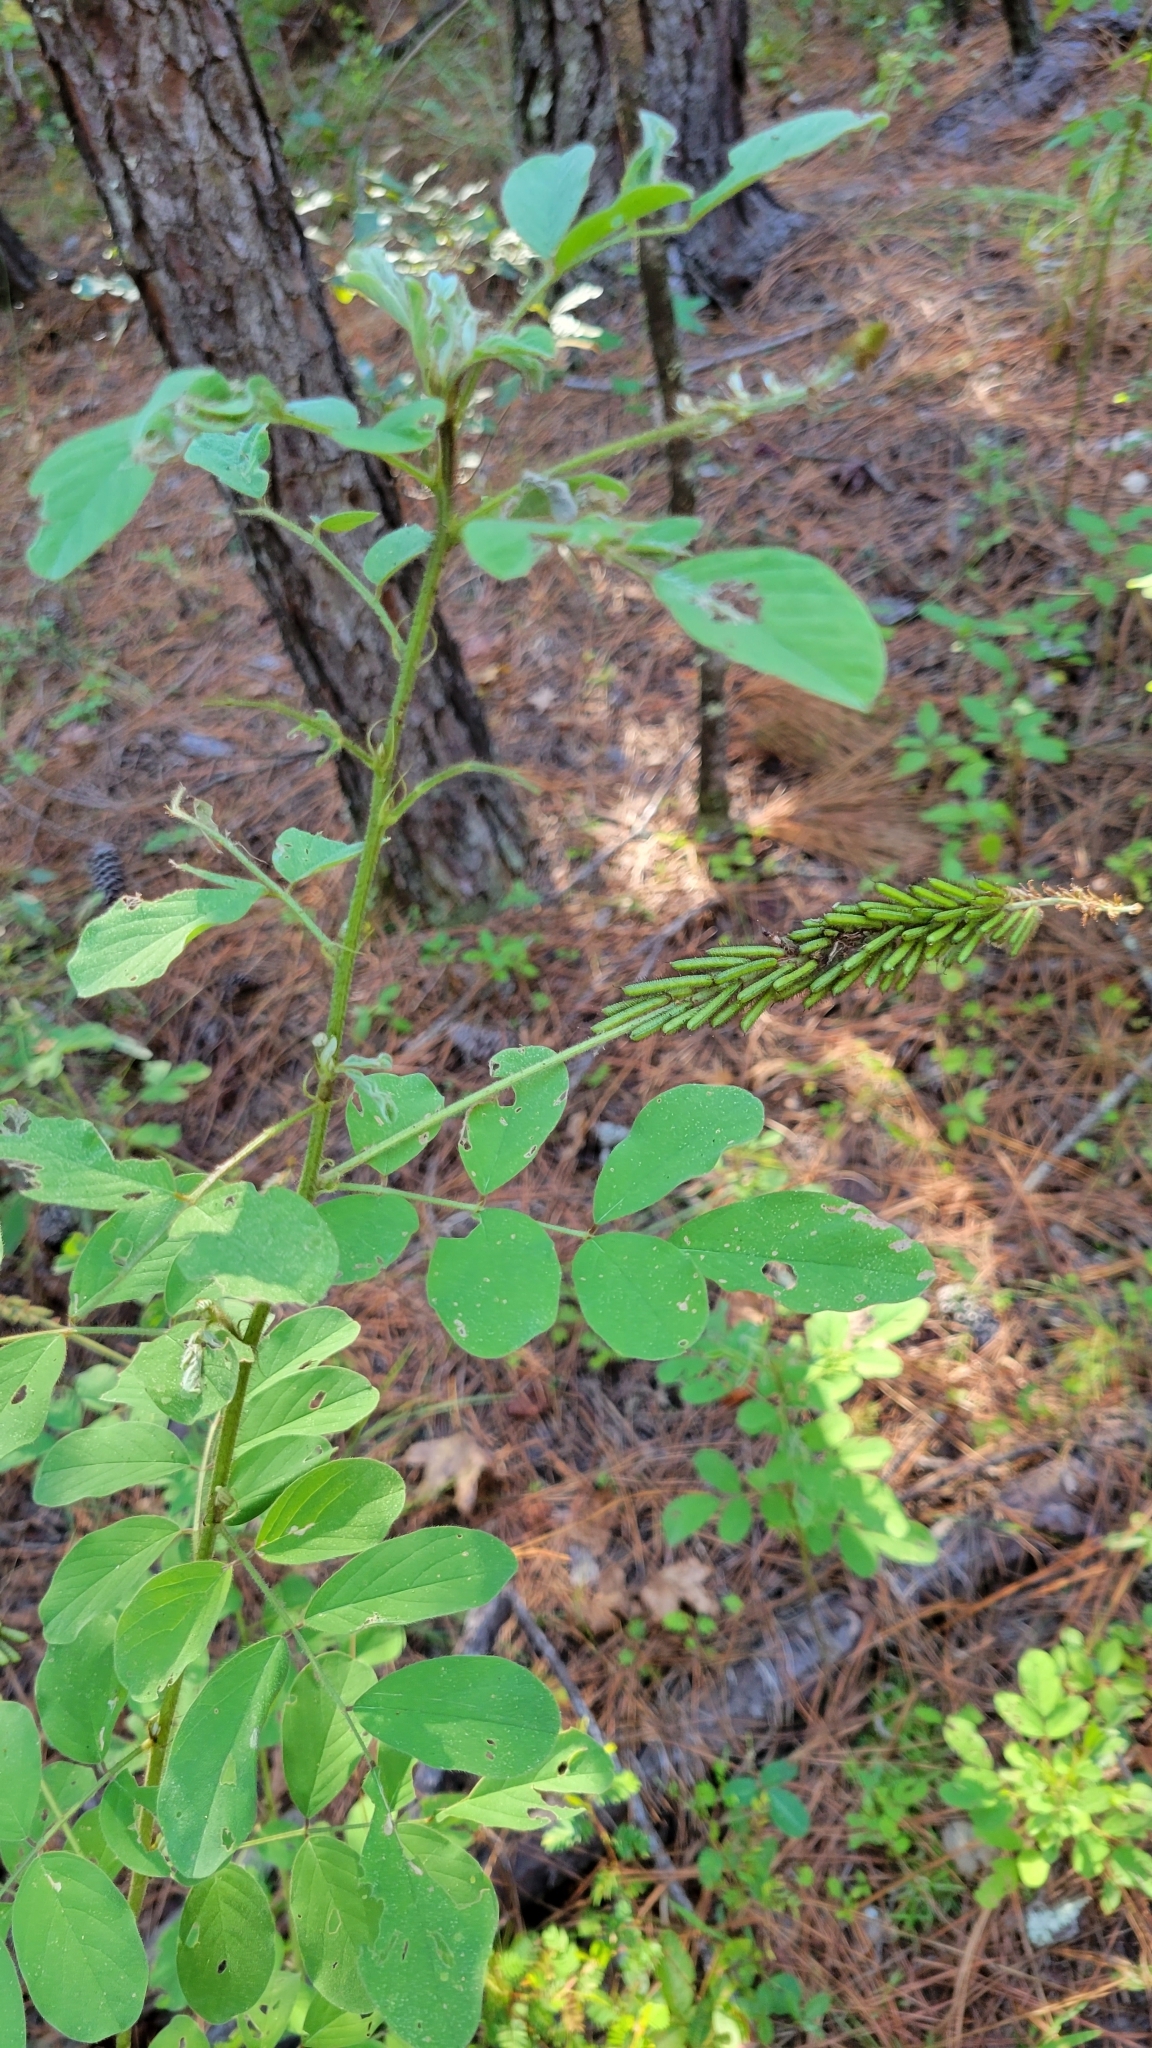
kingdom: Plantae
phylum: Tracheophyta
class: Magnoliopsida
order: Fabales
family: Fabaceae
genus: Indigofera
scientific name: Indigofera hirsuta
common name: Hairy indigo
